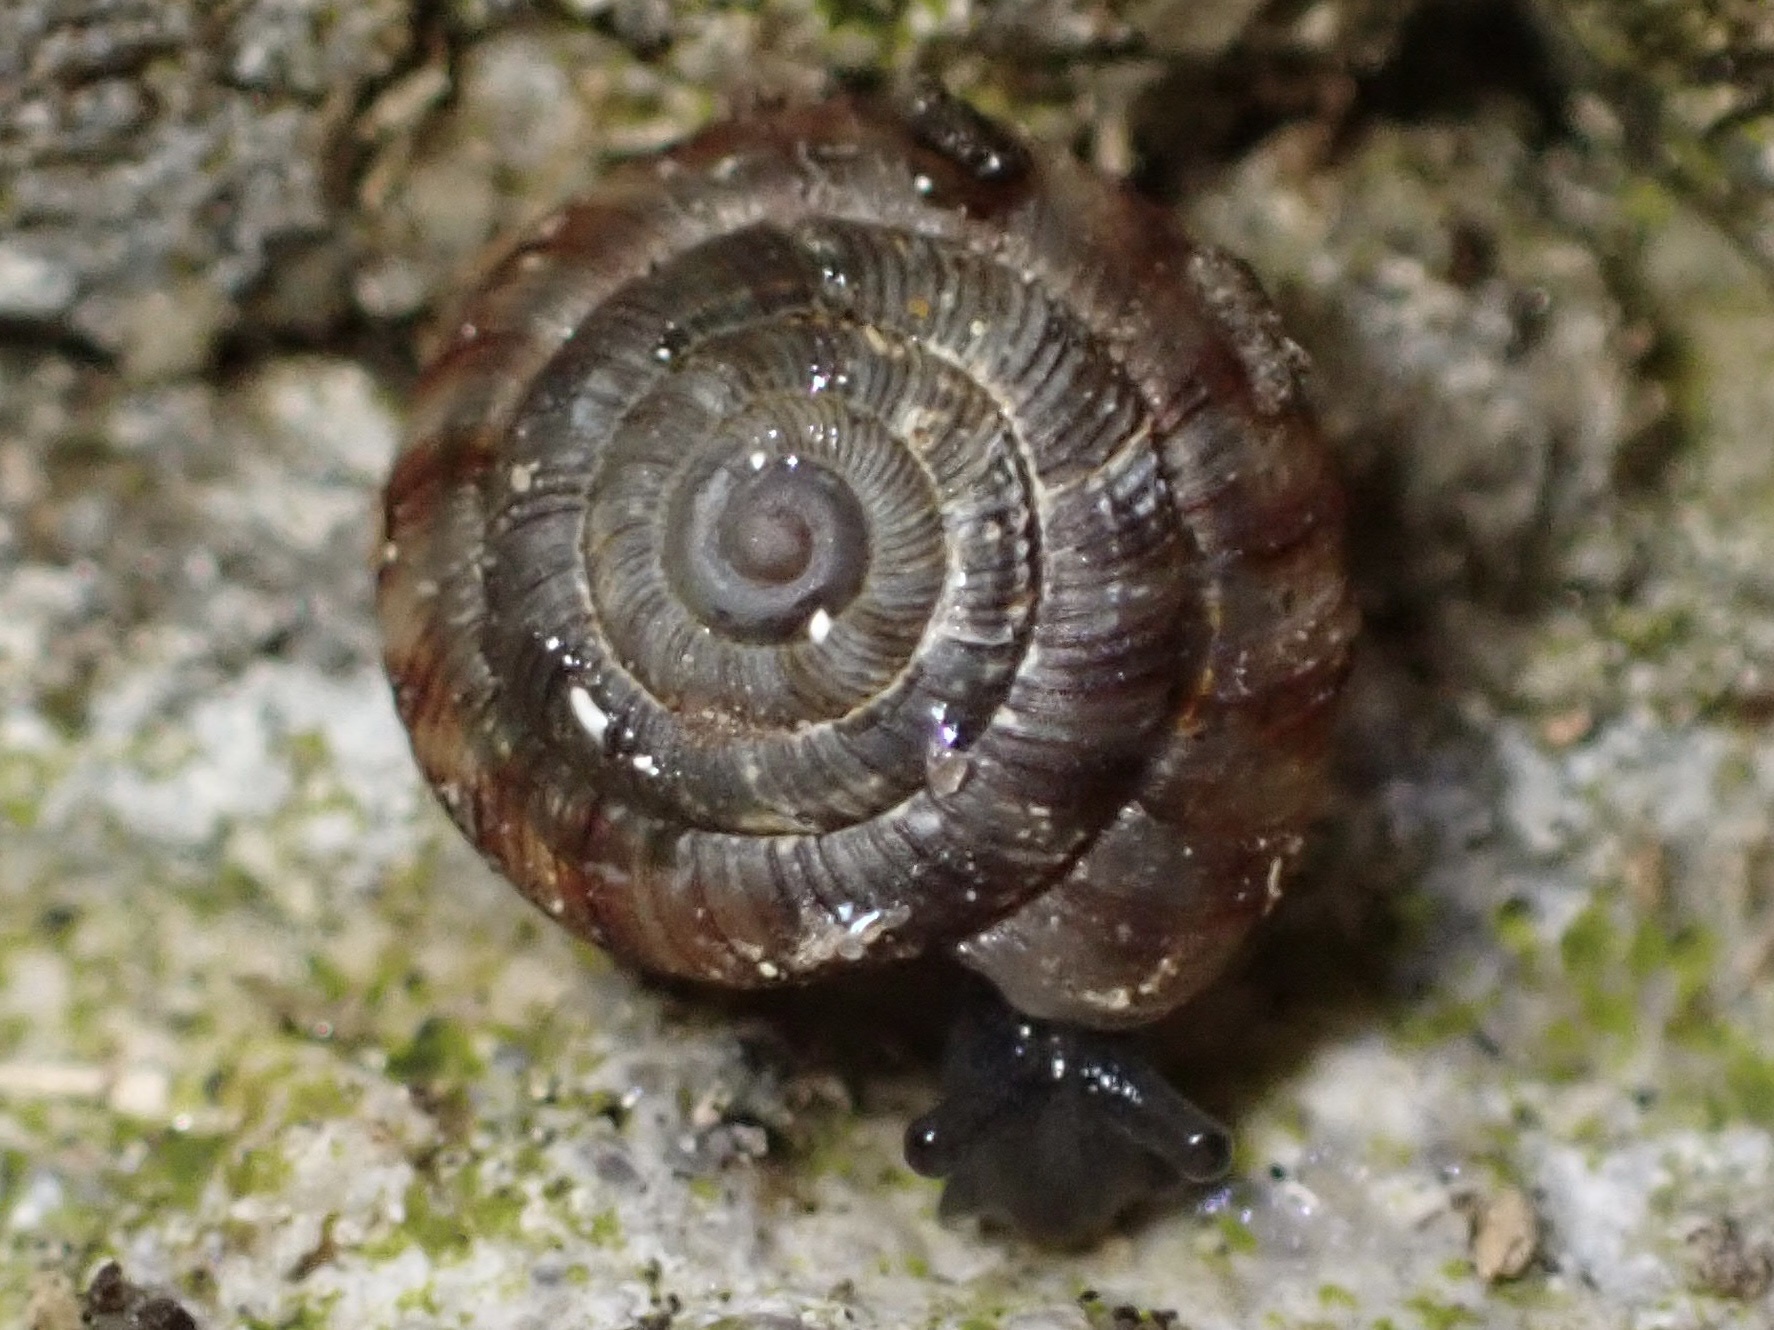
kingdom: Animalia
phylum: Mollusca
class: Gastropoda
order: Stylommatophora
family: Discidae
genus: Discus
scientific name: Discus rotundatus
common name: Rounded snail
